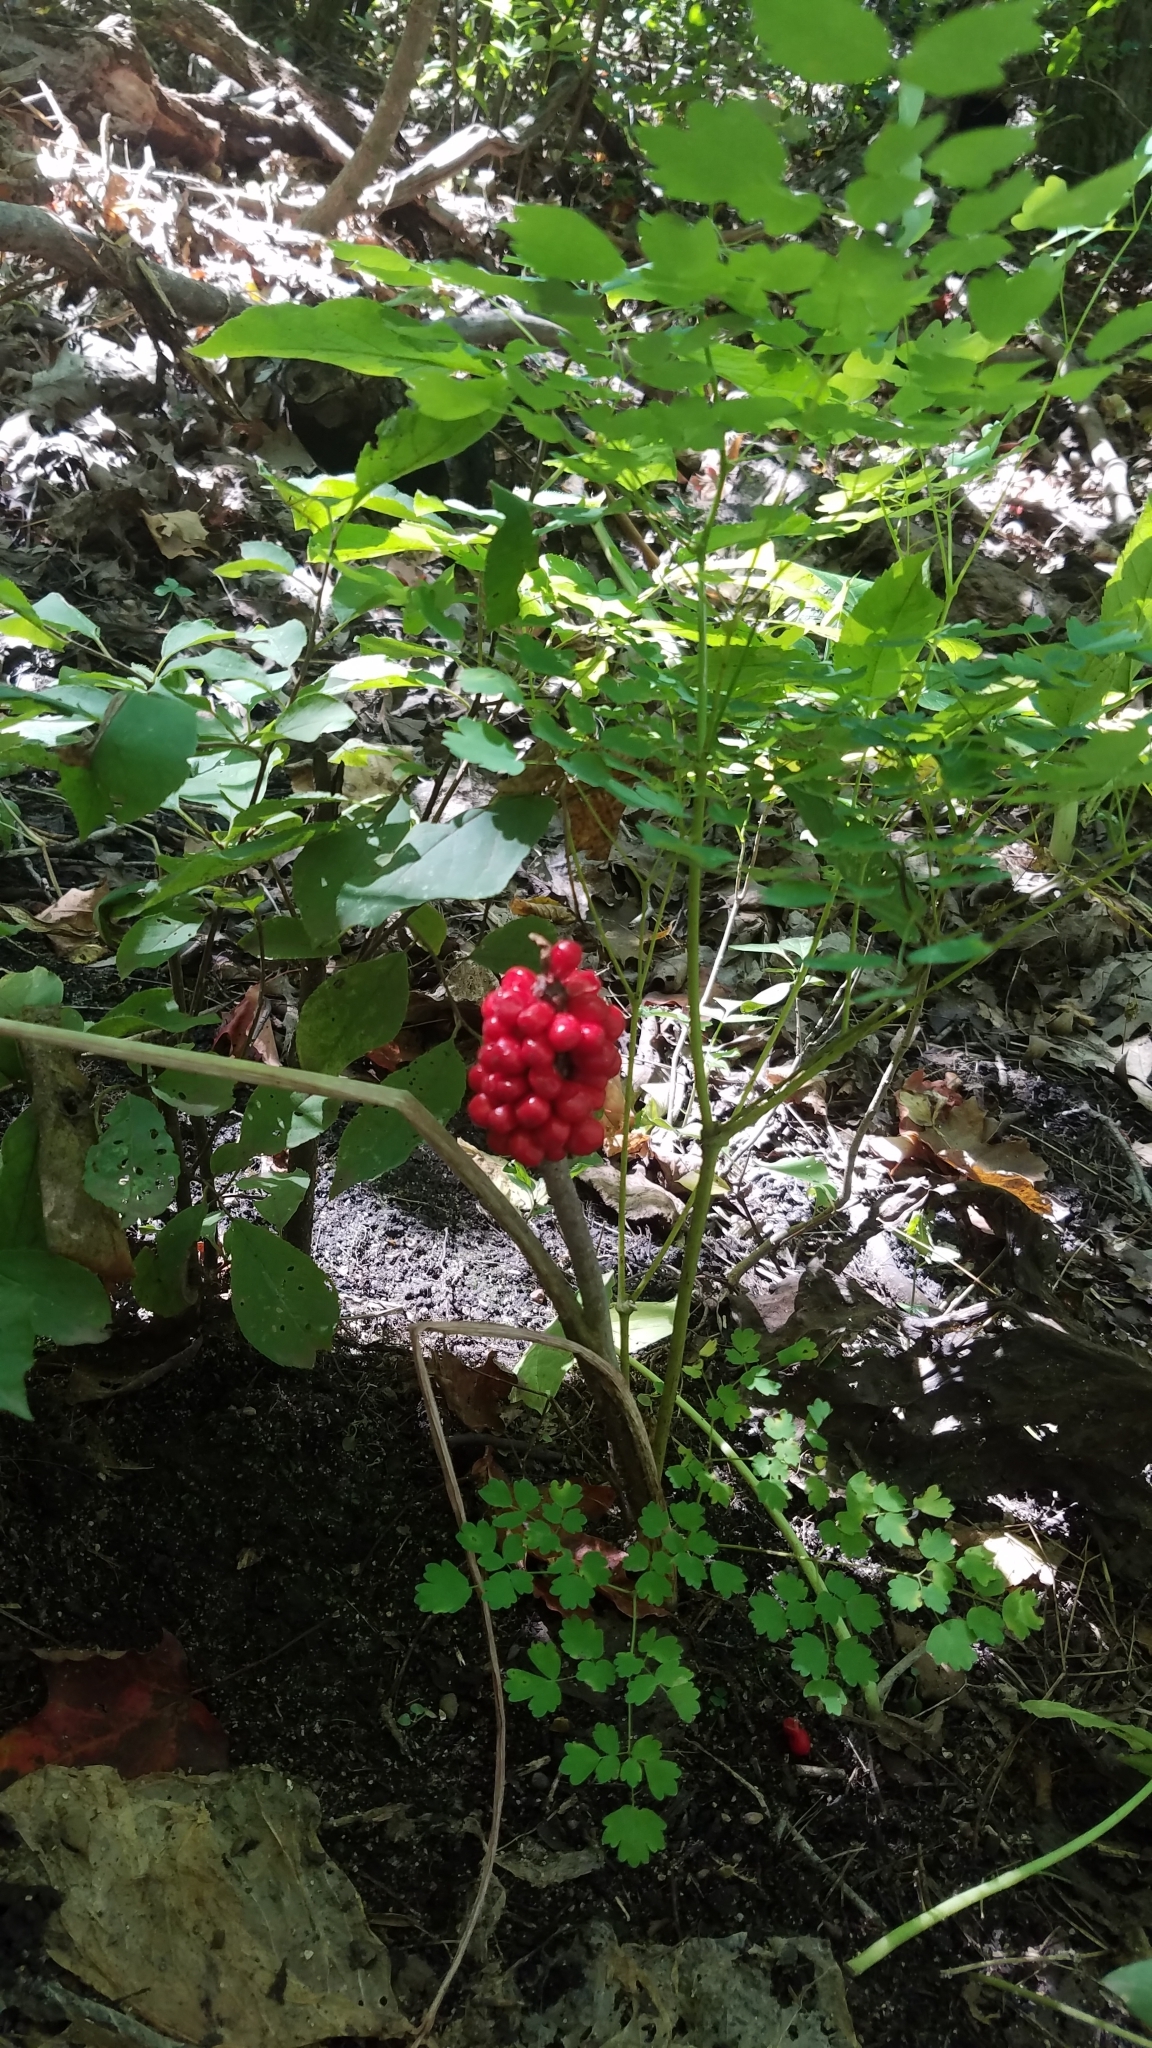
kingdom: Plantae
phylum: Tracheophyta
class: Liliopsida
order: Alismatales
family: Araceae
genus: Arisaema
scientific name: Arisaema triphyllum
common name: Jack-in-the-pulpit
